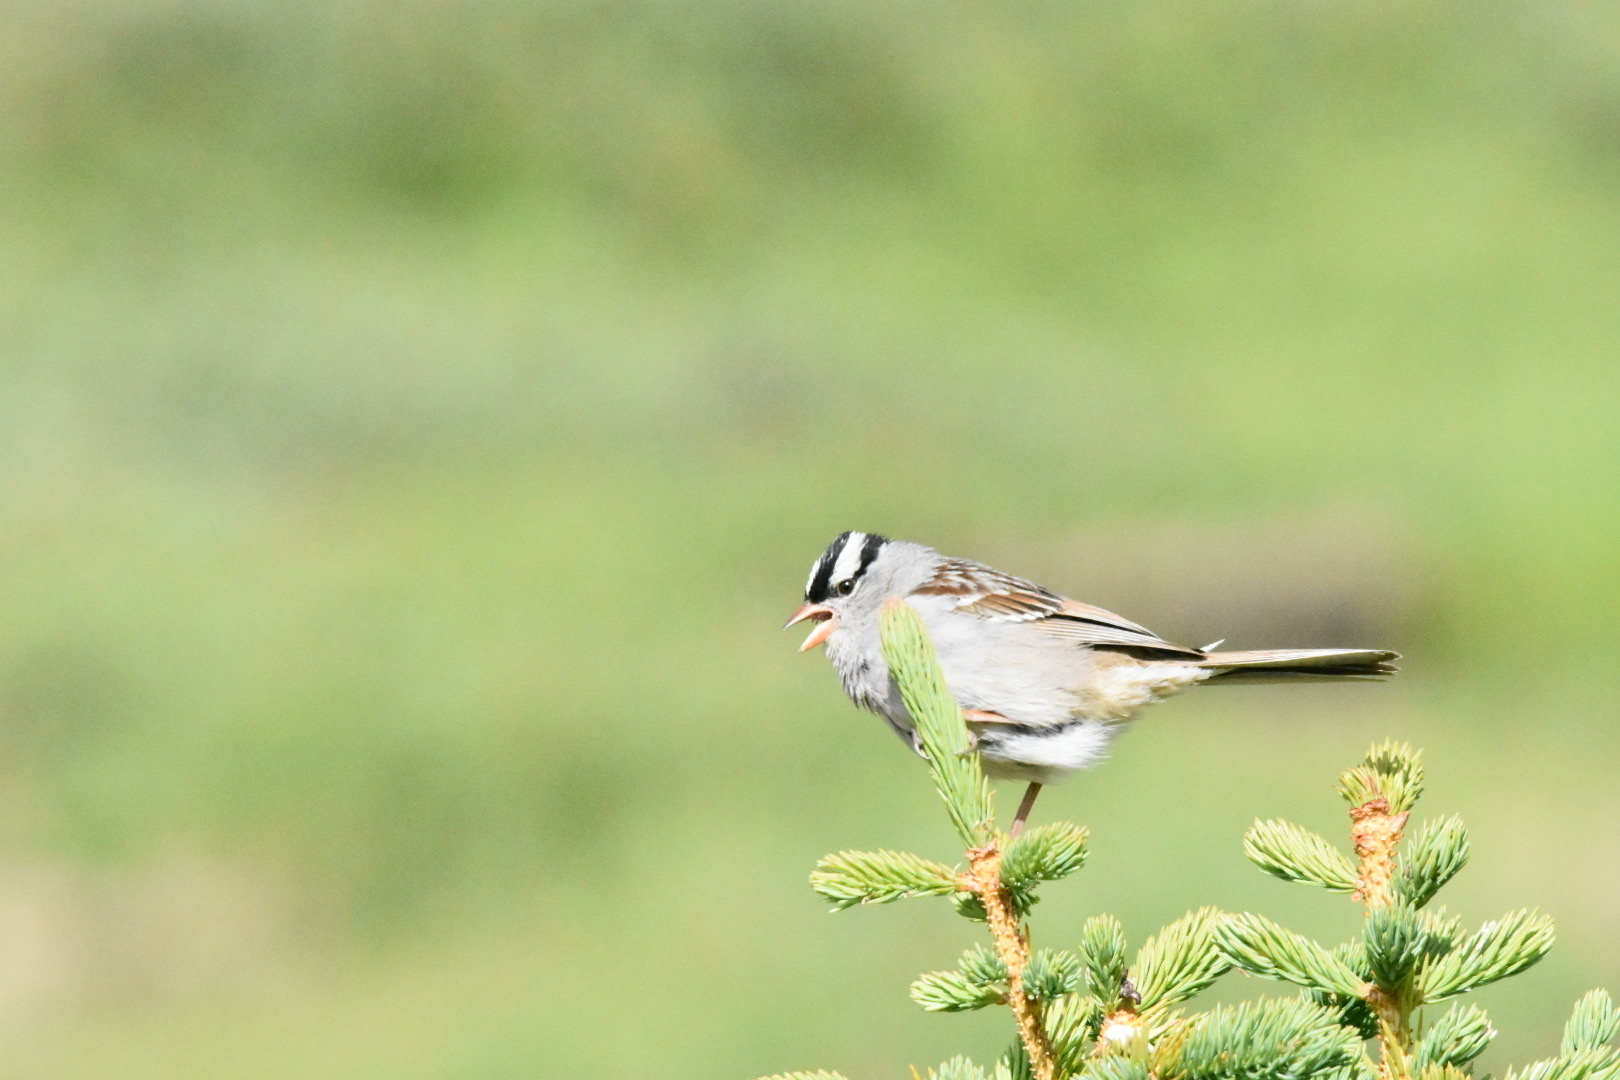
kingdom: Animalia
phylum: Chordata
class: Aves
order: Passeriformes
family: Passerellidae
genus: Zonotrichia
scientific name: Zonotrichia leucophrys
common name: White-crowned sparrow
